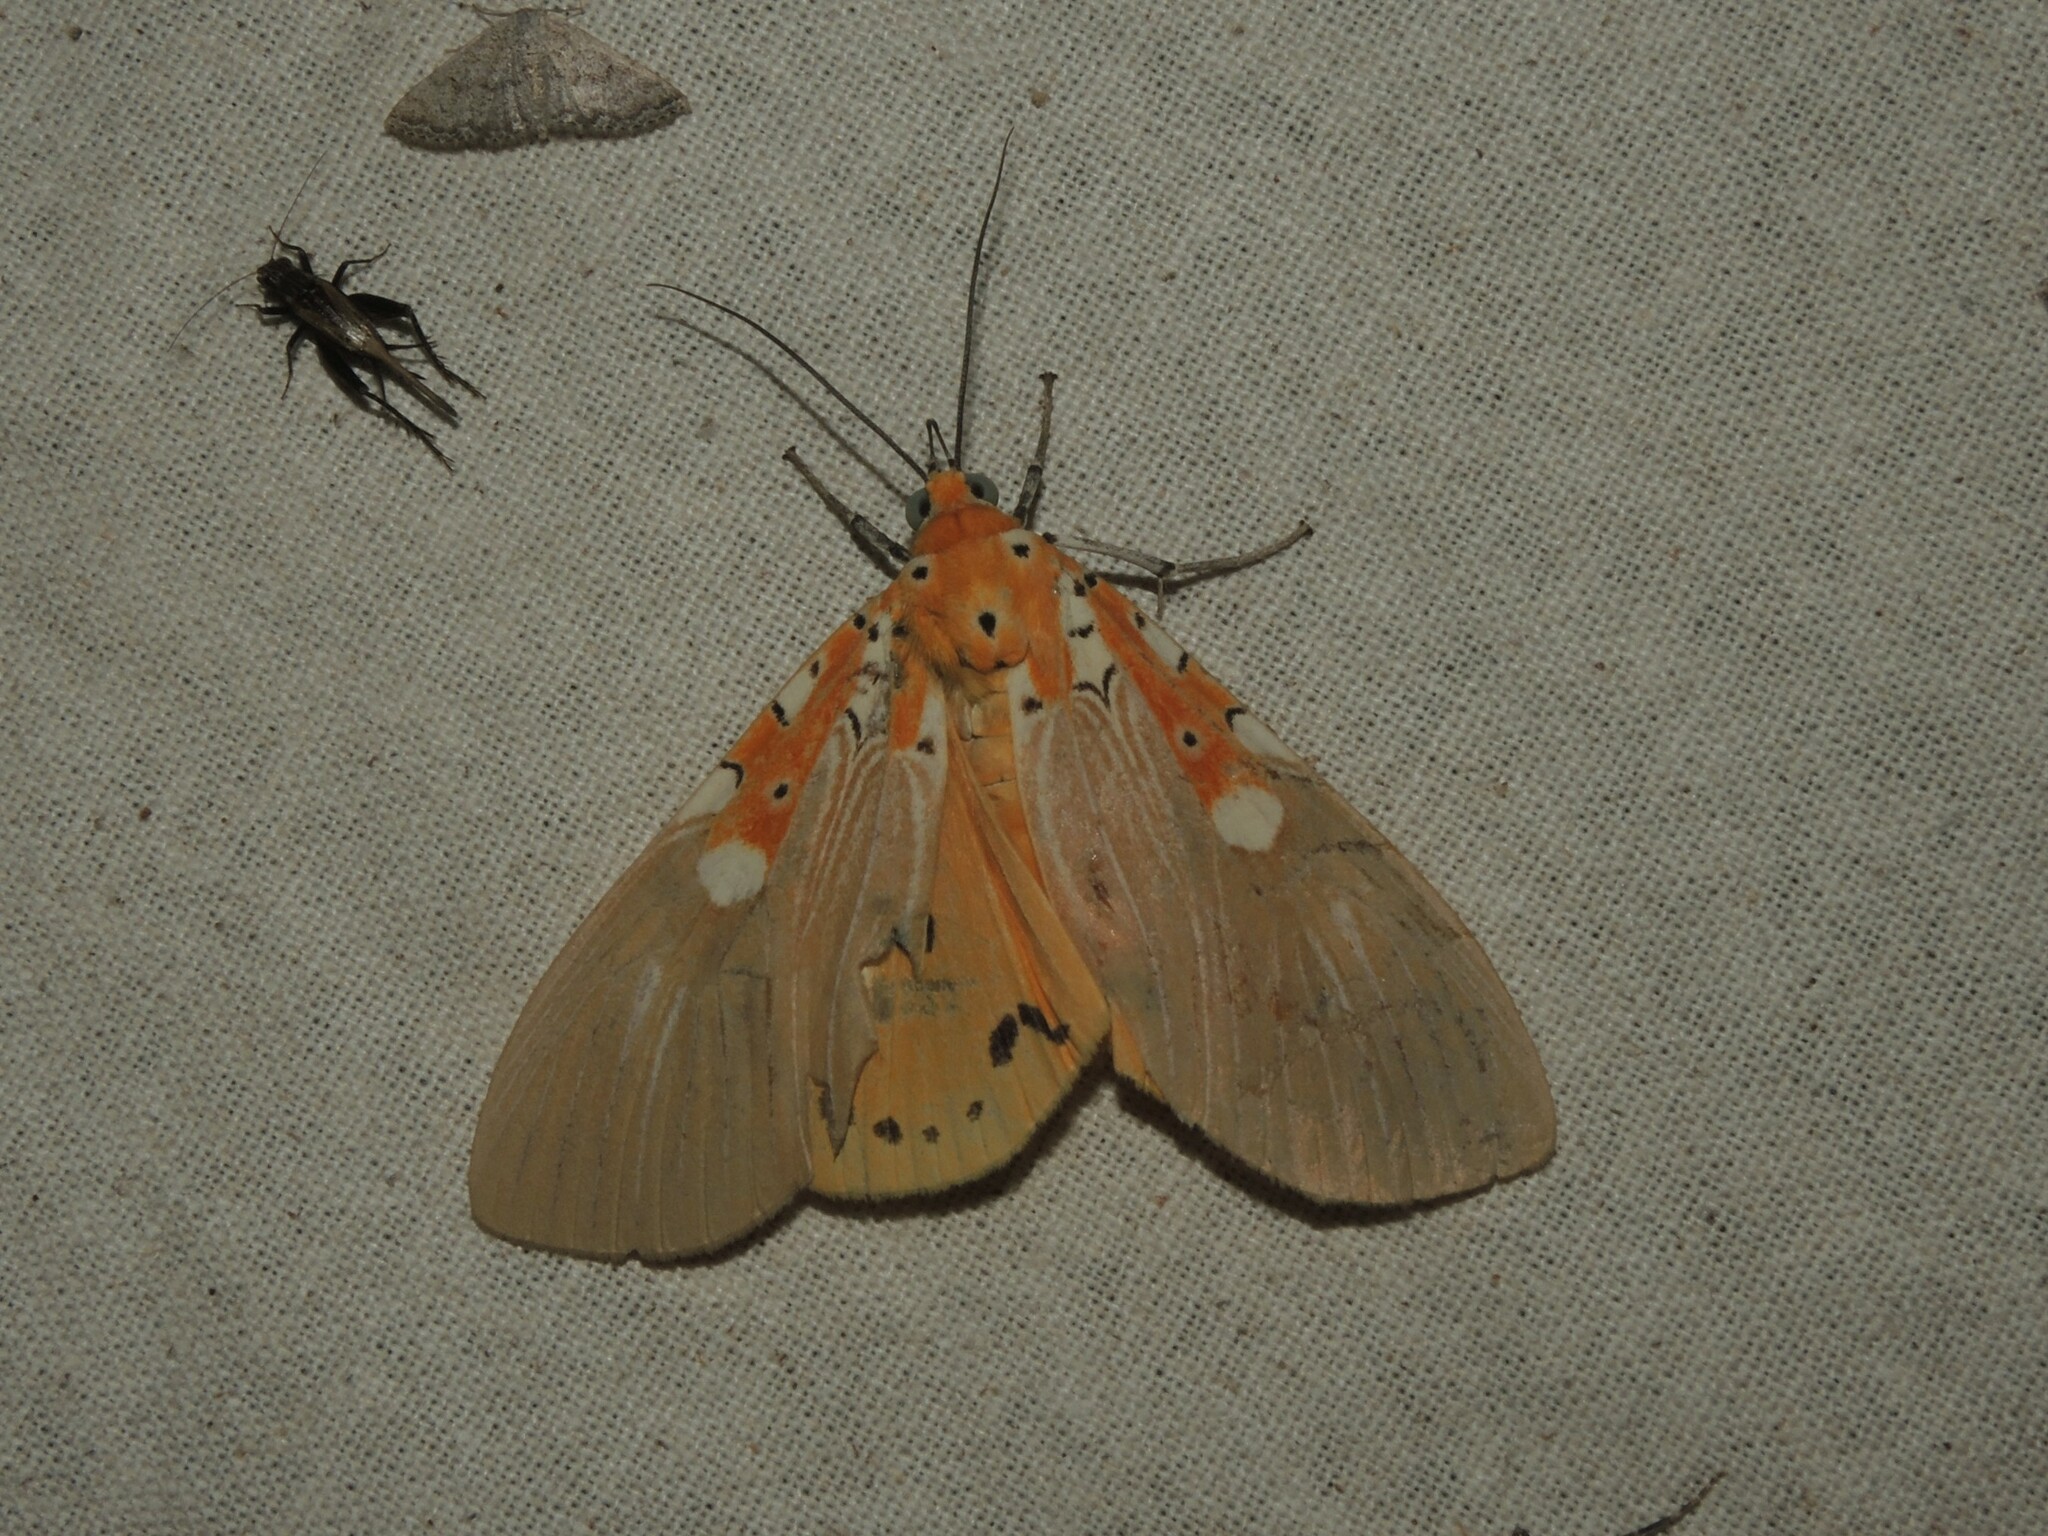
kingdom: Animalia
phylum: Arthropoda
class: Insecta
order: Lepidoptera
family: Erebidae
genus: Asota
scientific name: Asota ficus
